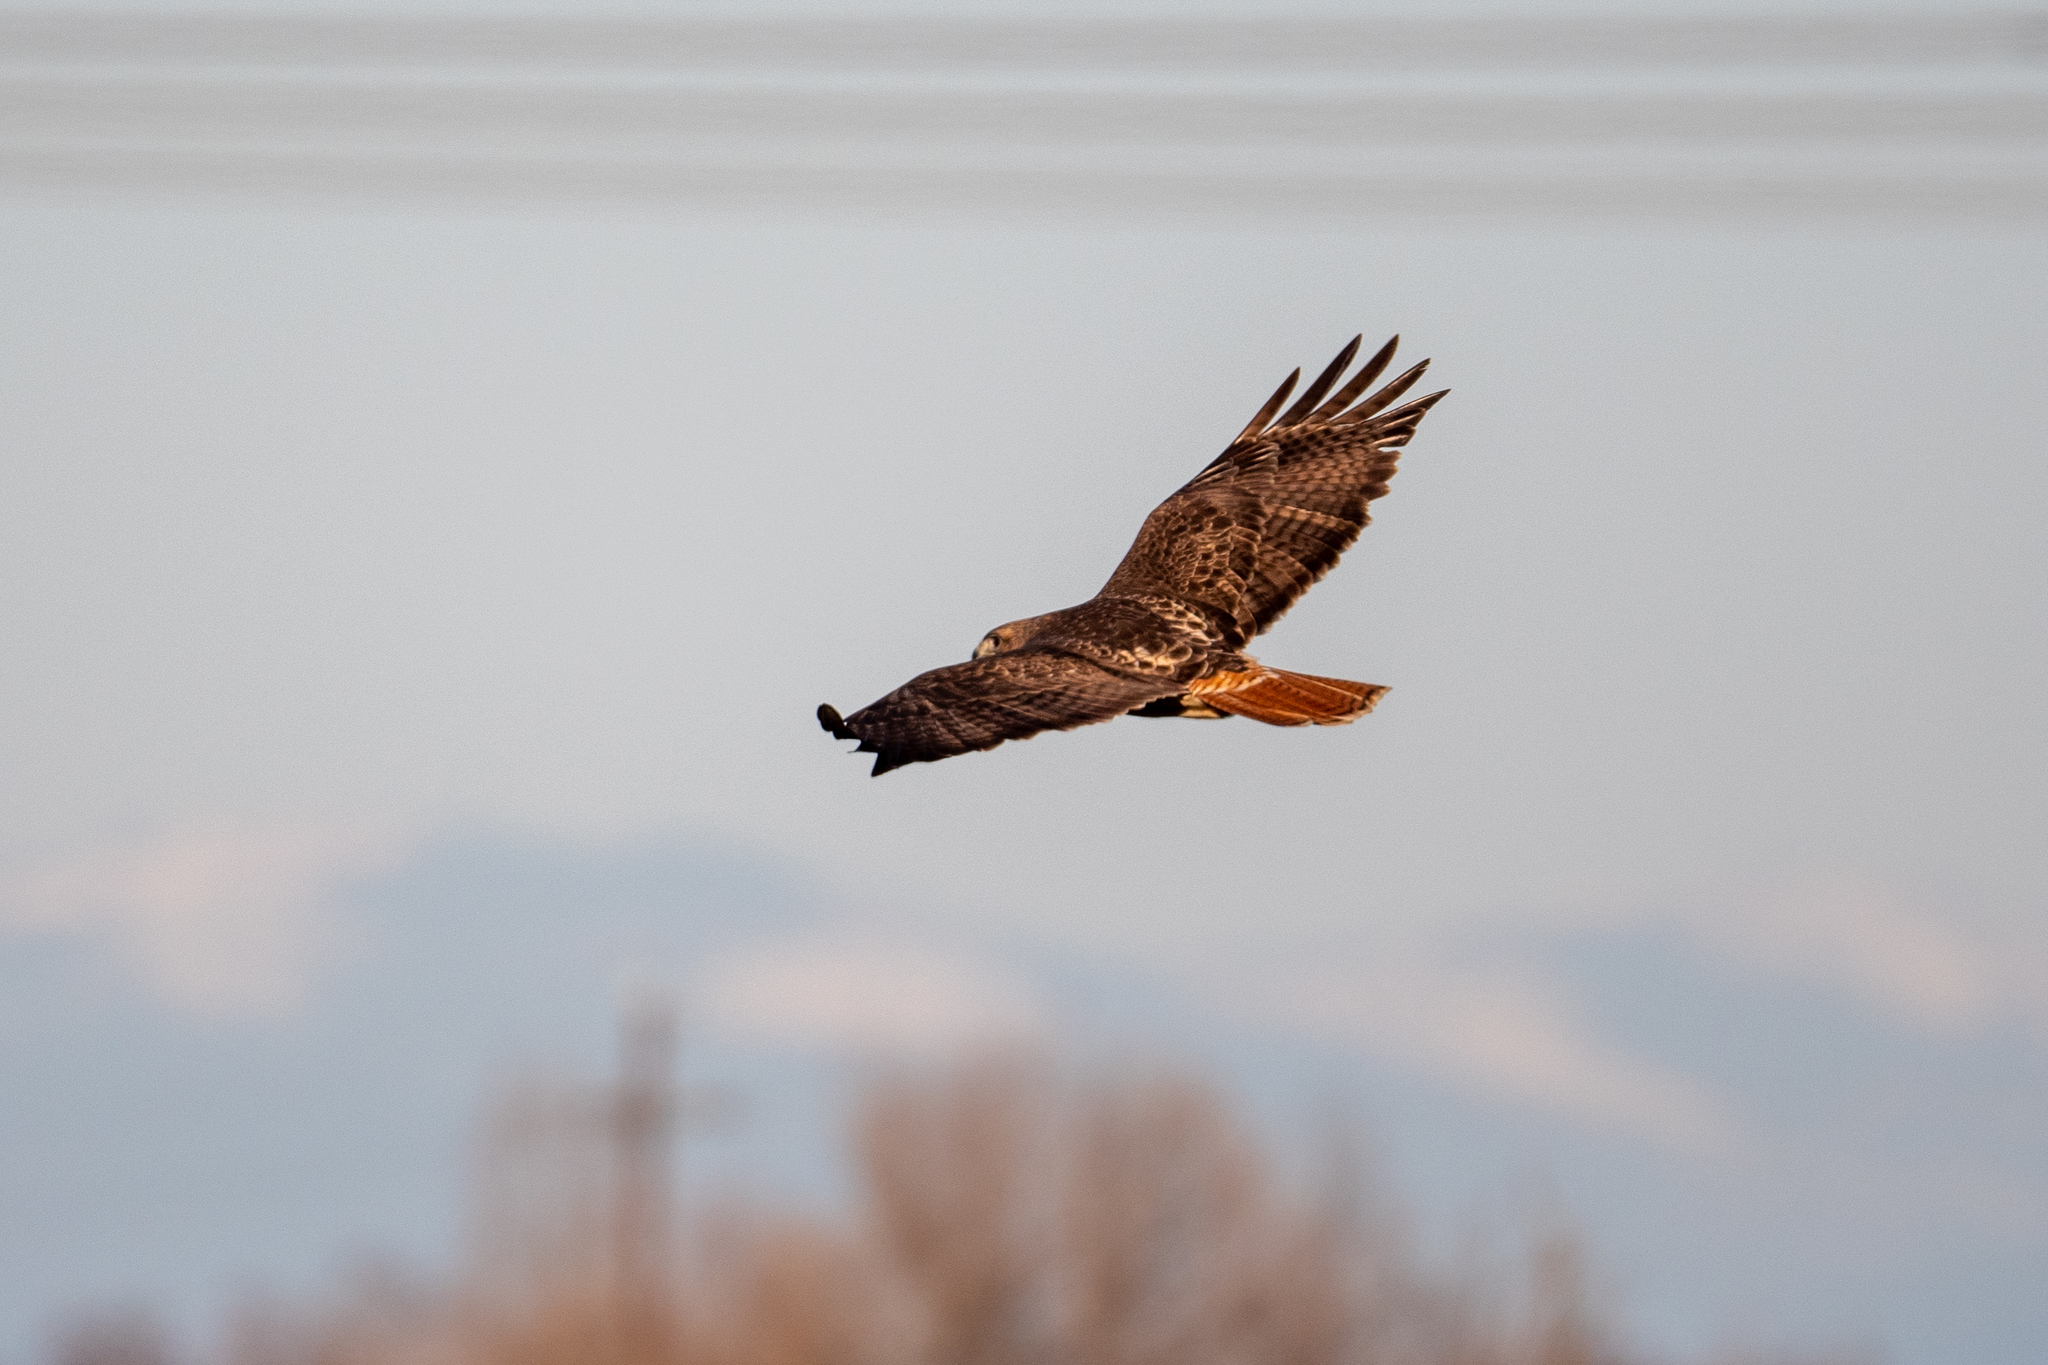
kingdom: Animalia
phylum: Chordata
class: Aves
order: Accipitriformes
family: Accipitridae
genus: Buteo
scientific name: Buteo jamaicensis
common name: Red-tailed hawk
